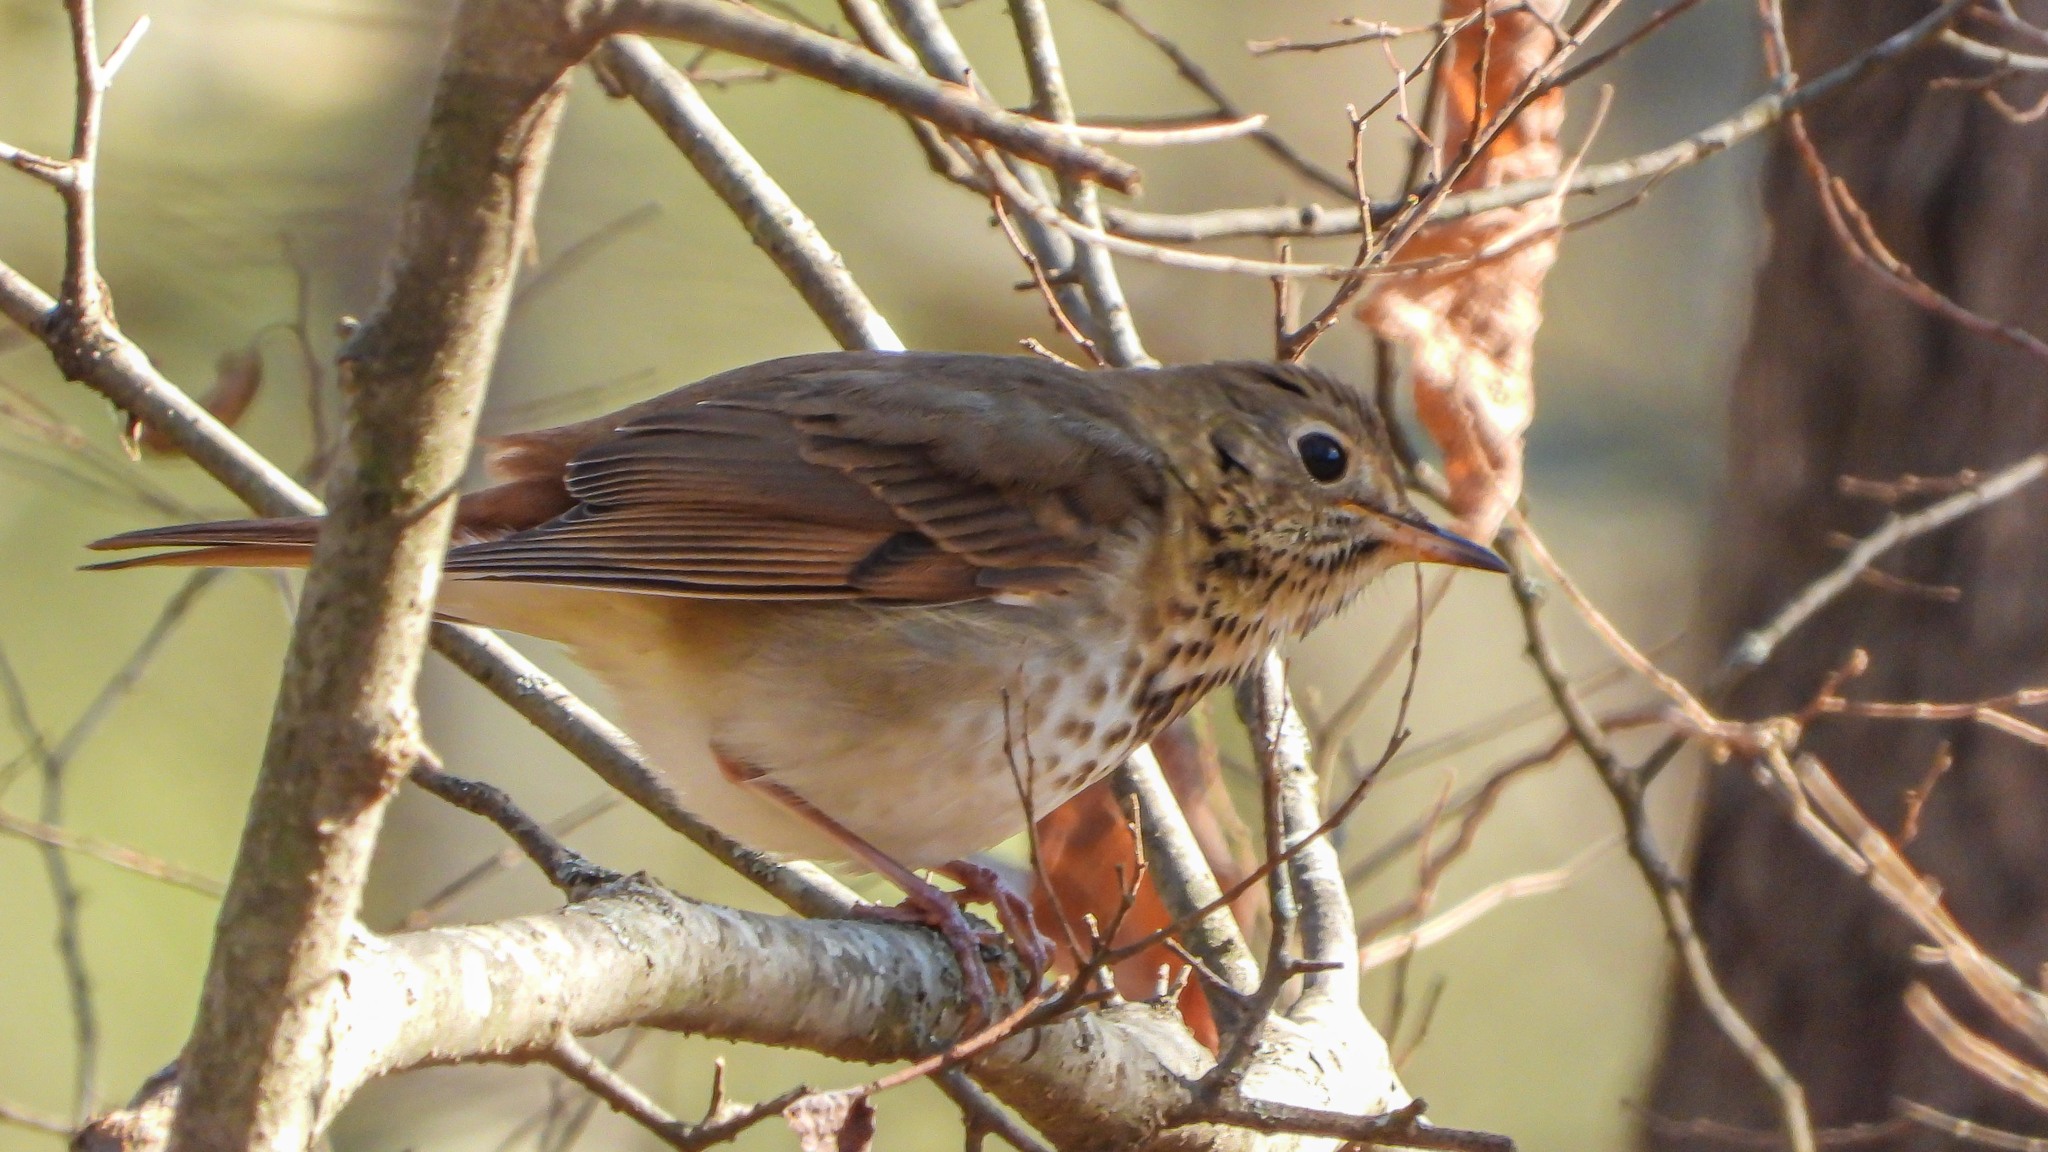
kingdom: Animalia
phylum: Chordata
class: Aves
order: Passeriformes
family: Turdidae
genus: Catharus
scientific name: Catharus guttatus
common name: Hermit thrush
